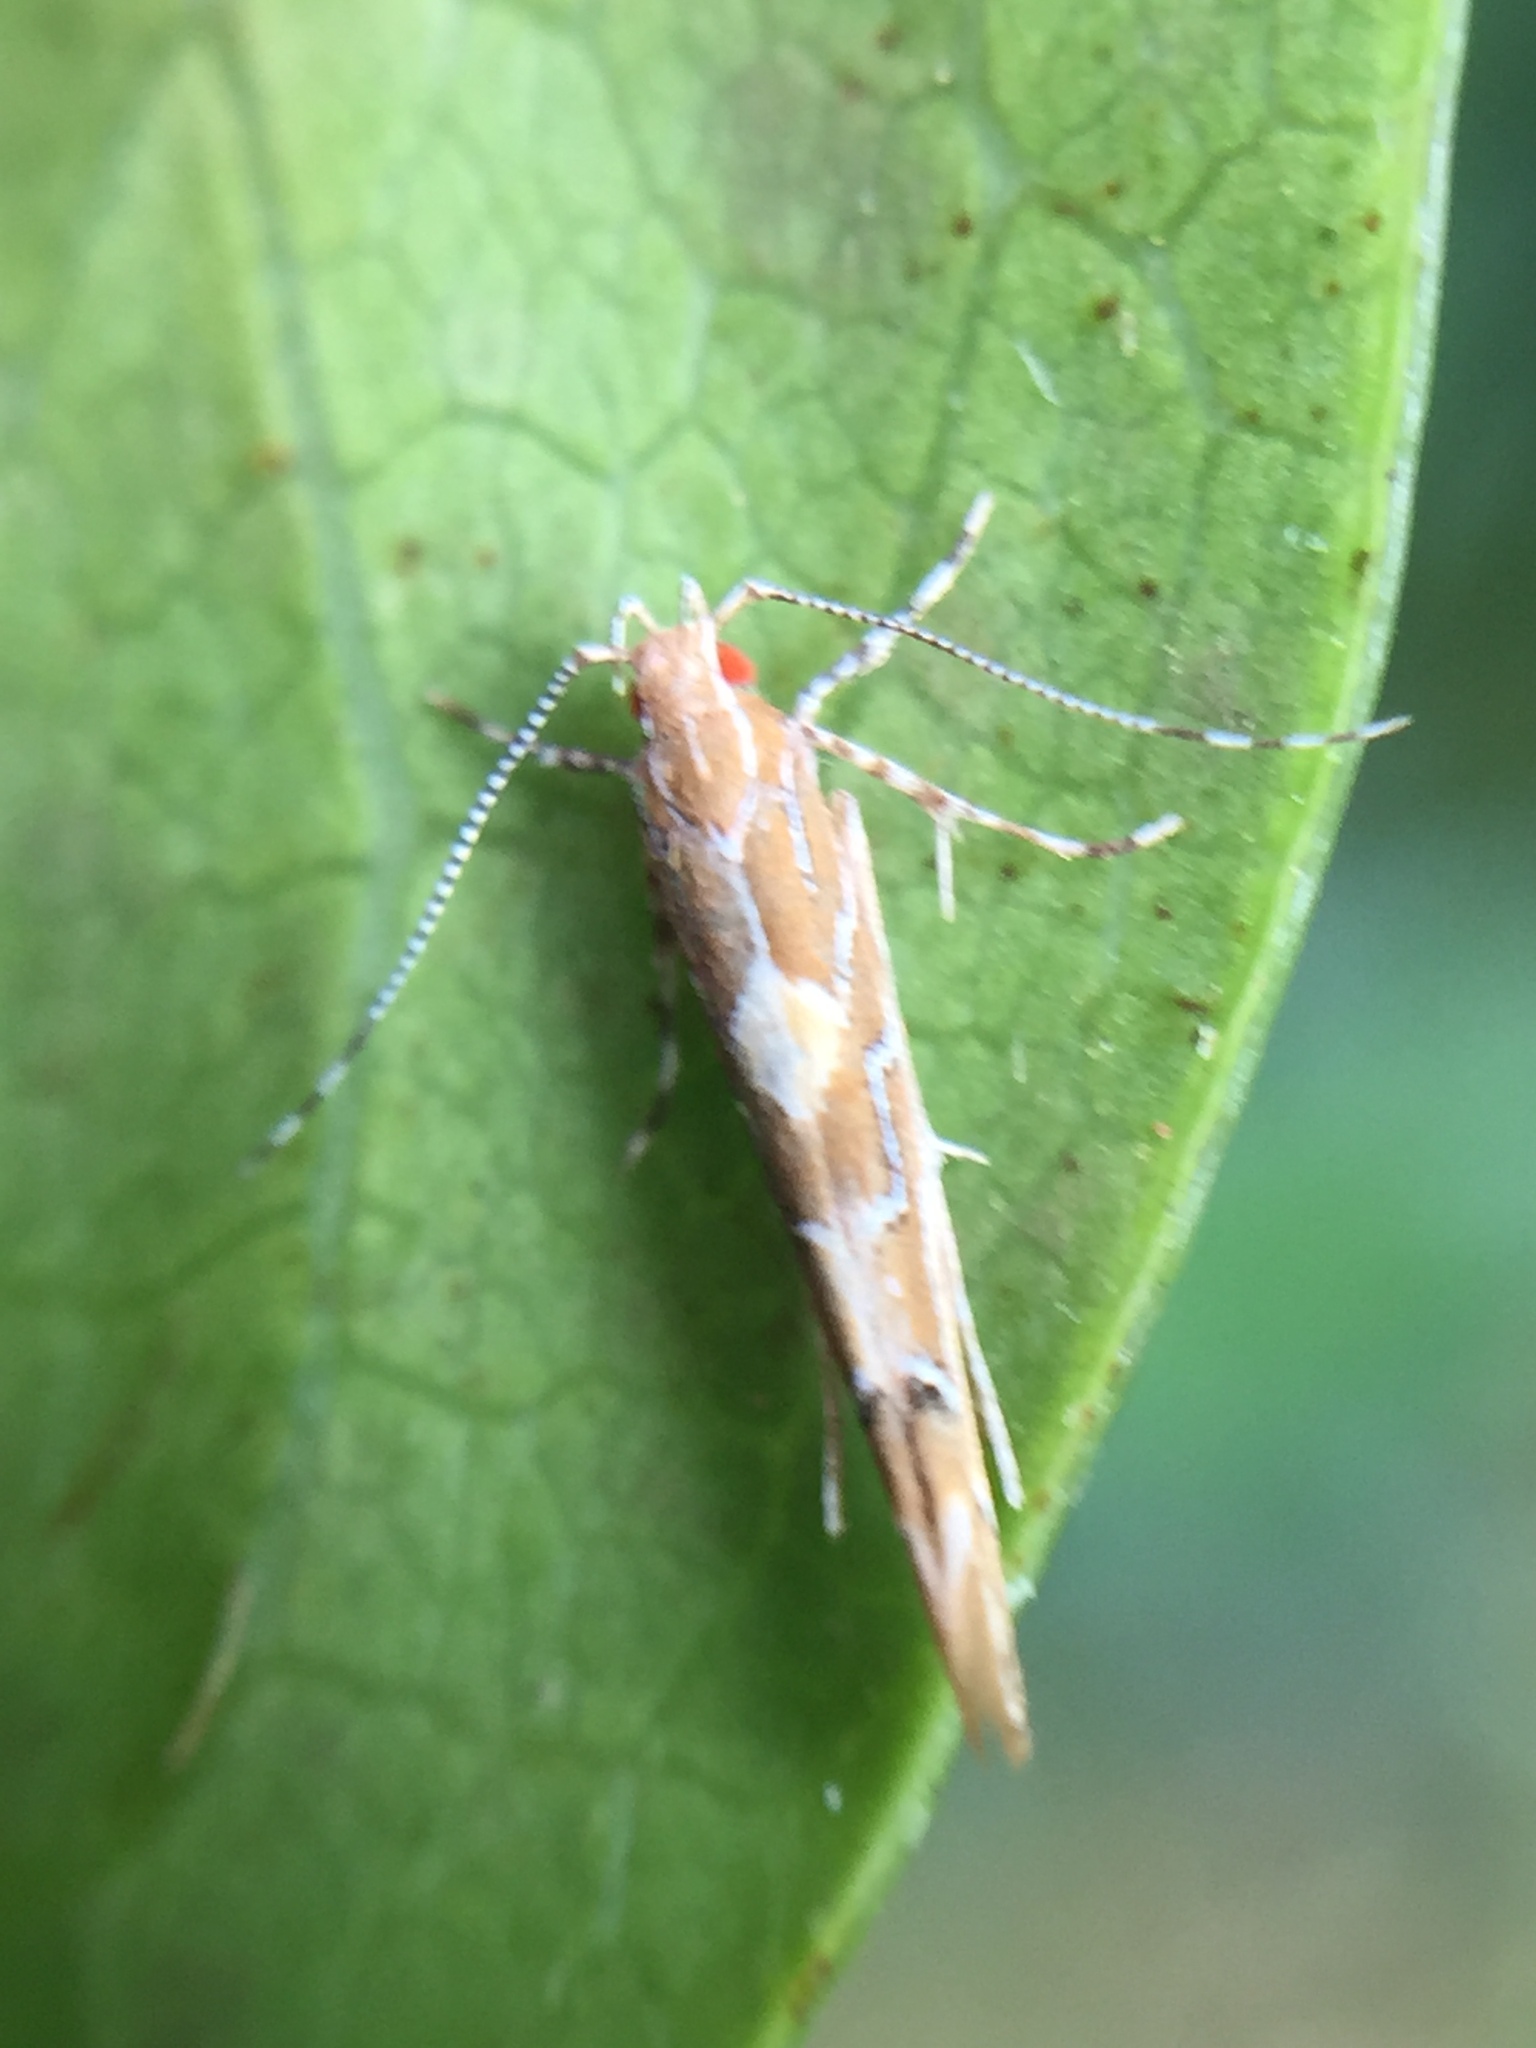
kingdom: Animalia
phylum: Arthropoda
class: Insecta
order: Lepidoptera
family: Cosmopterigidae
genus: Pyroderces
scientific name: Pyroderces apparitella
